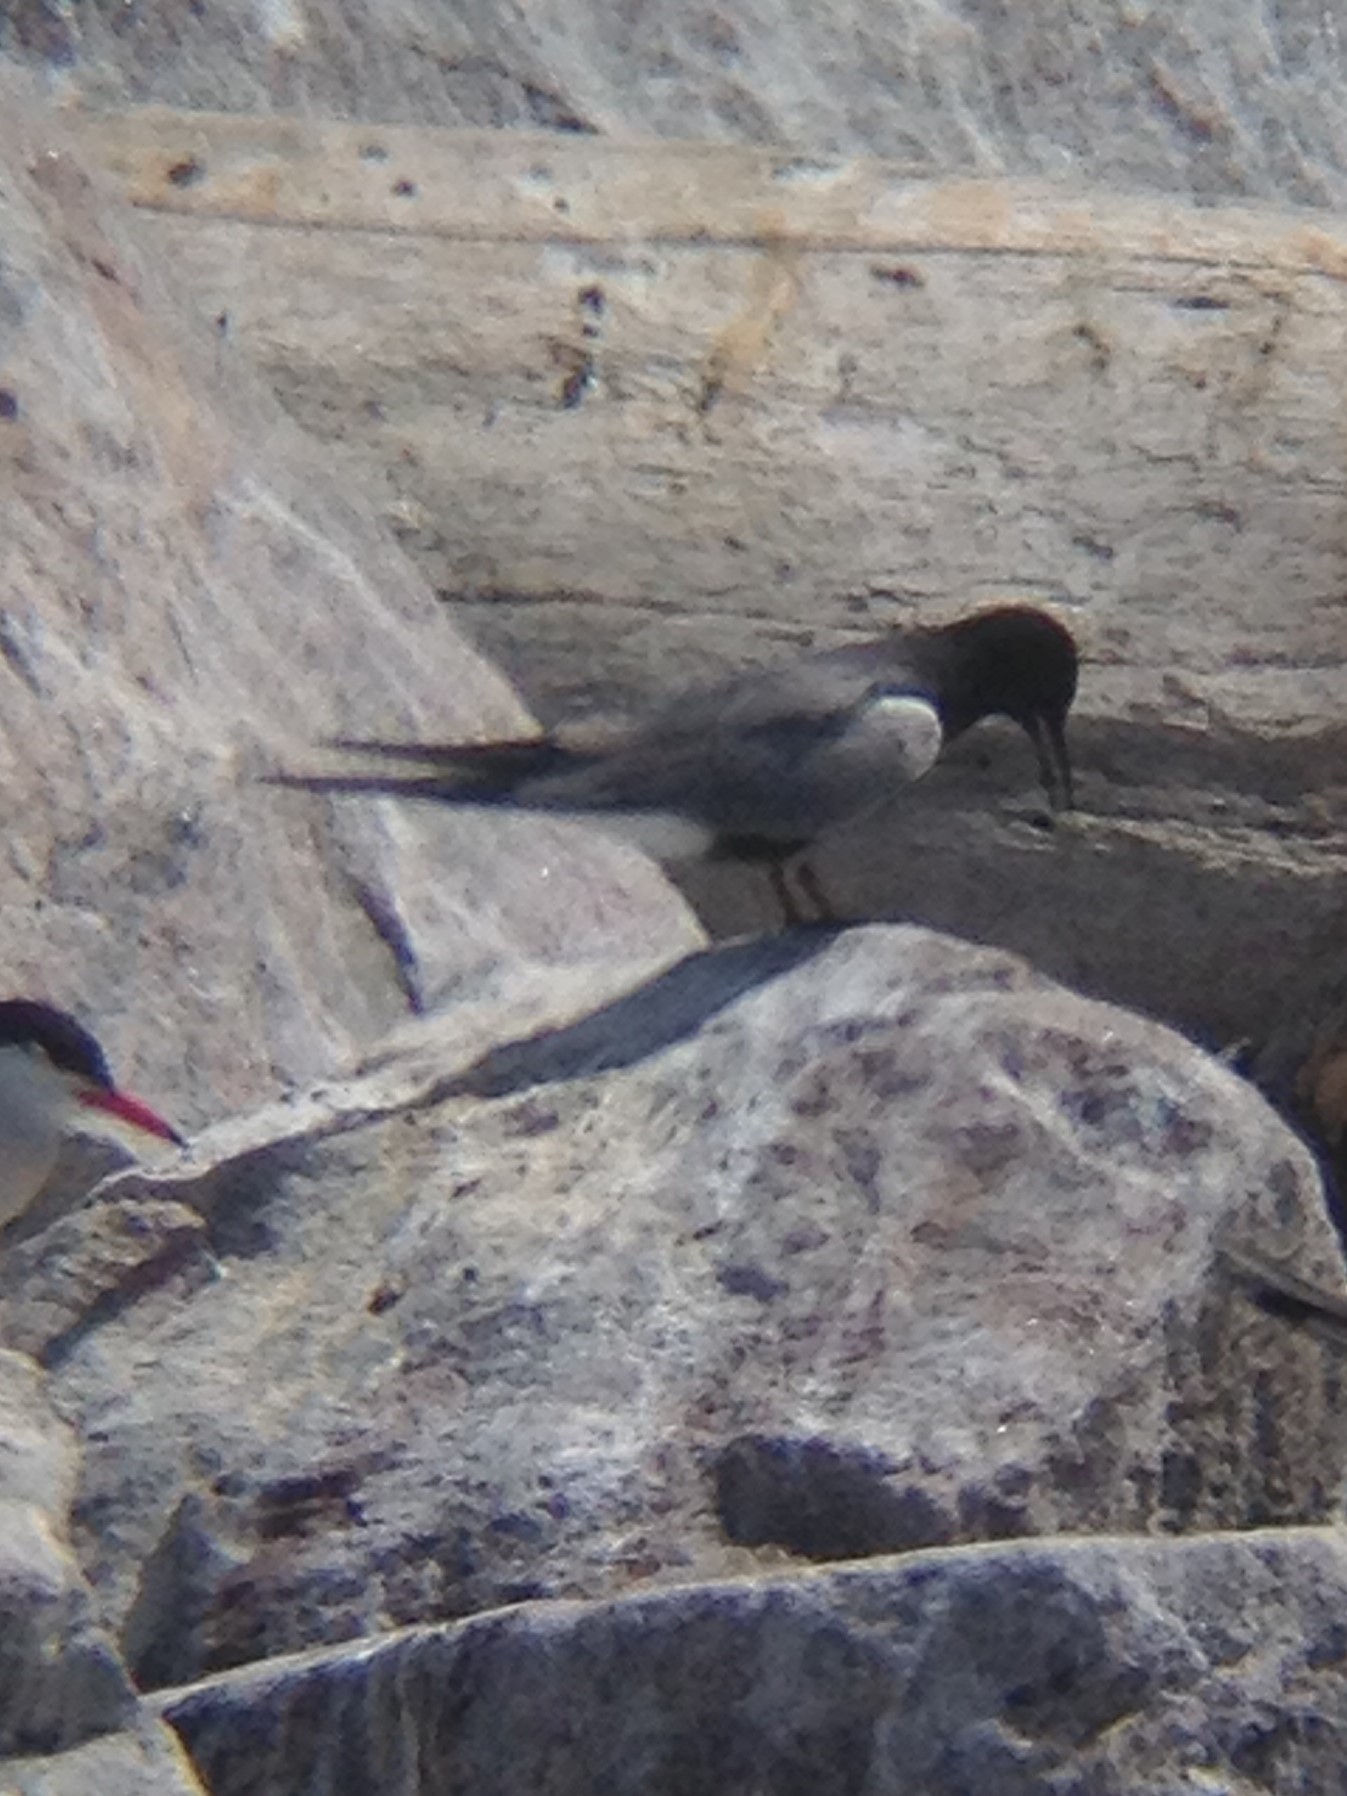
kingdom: Animalia
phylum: Chordata
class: Aves
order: Charadriiformes
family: Laridae
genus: Chlidonias
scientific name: Chlidonias niger
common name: Black tern
